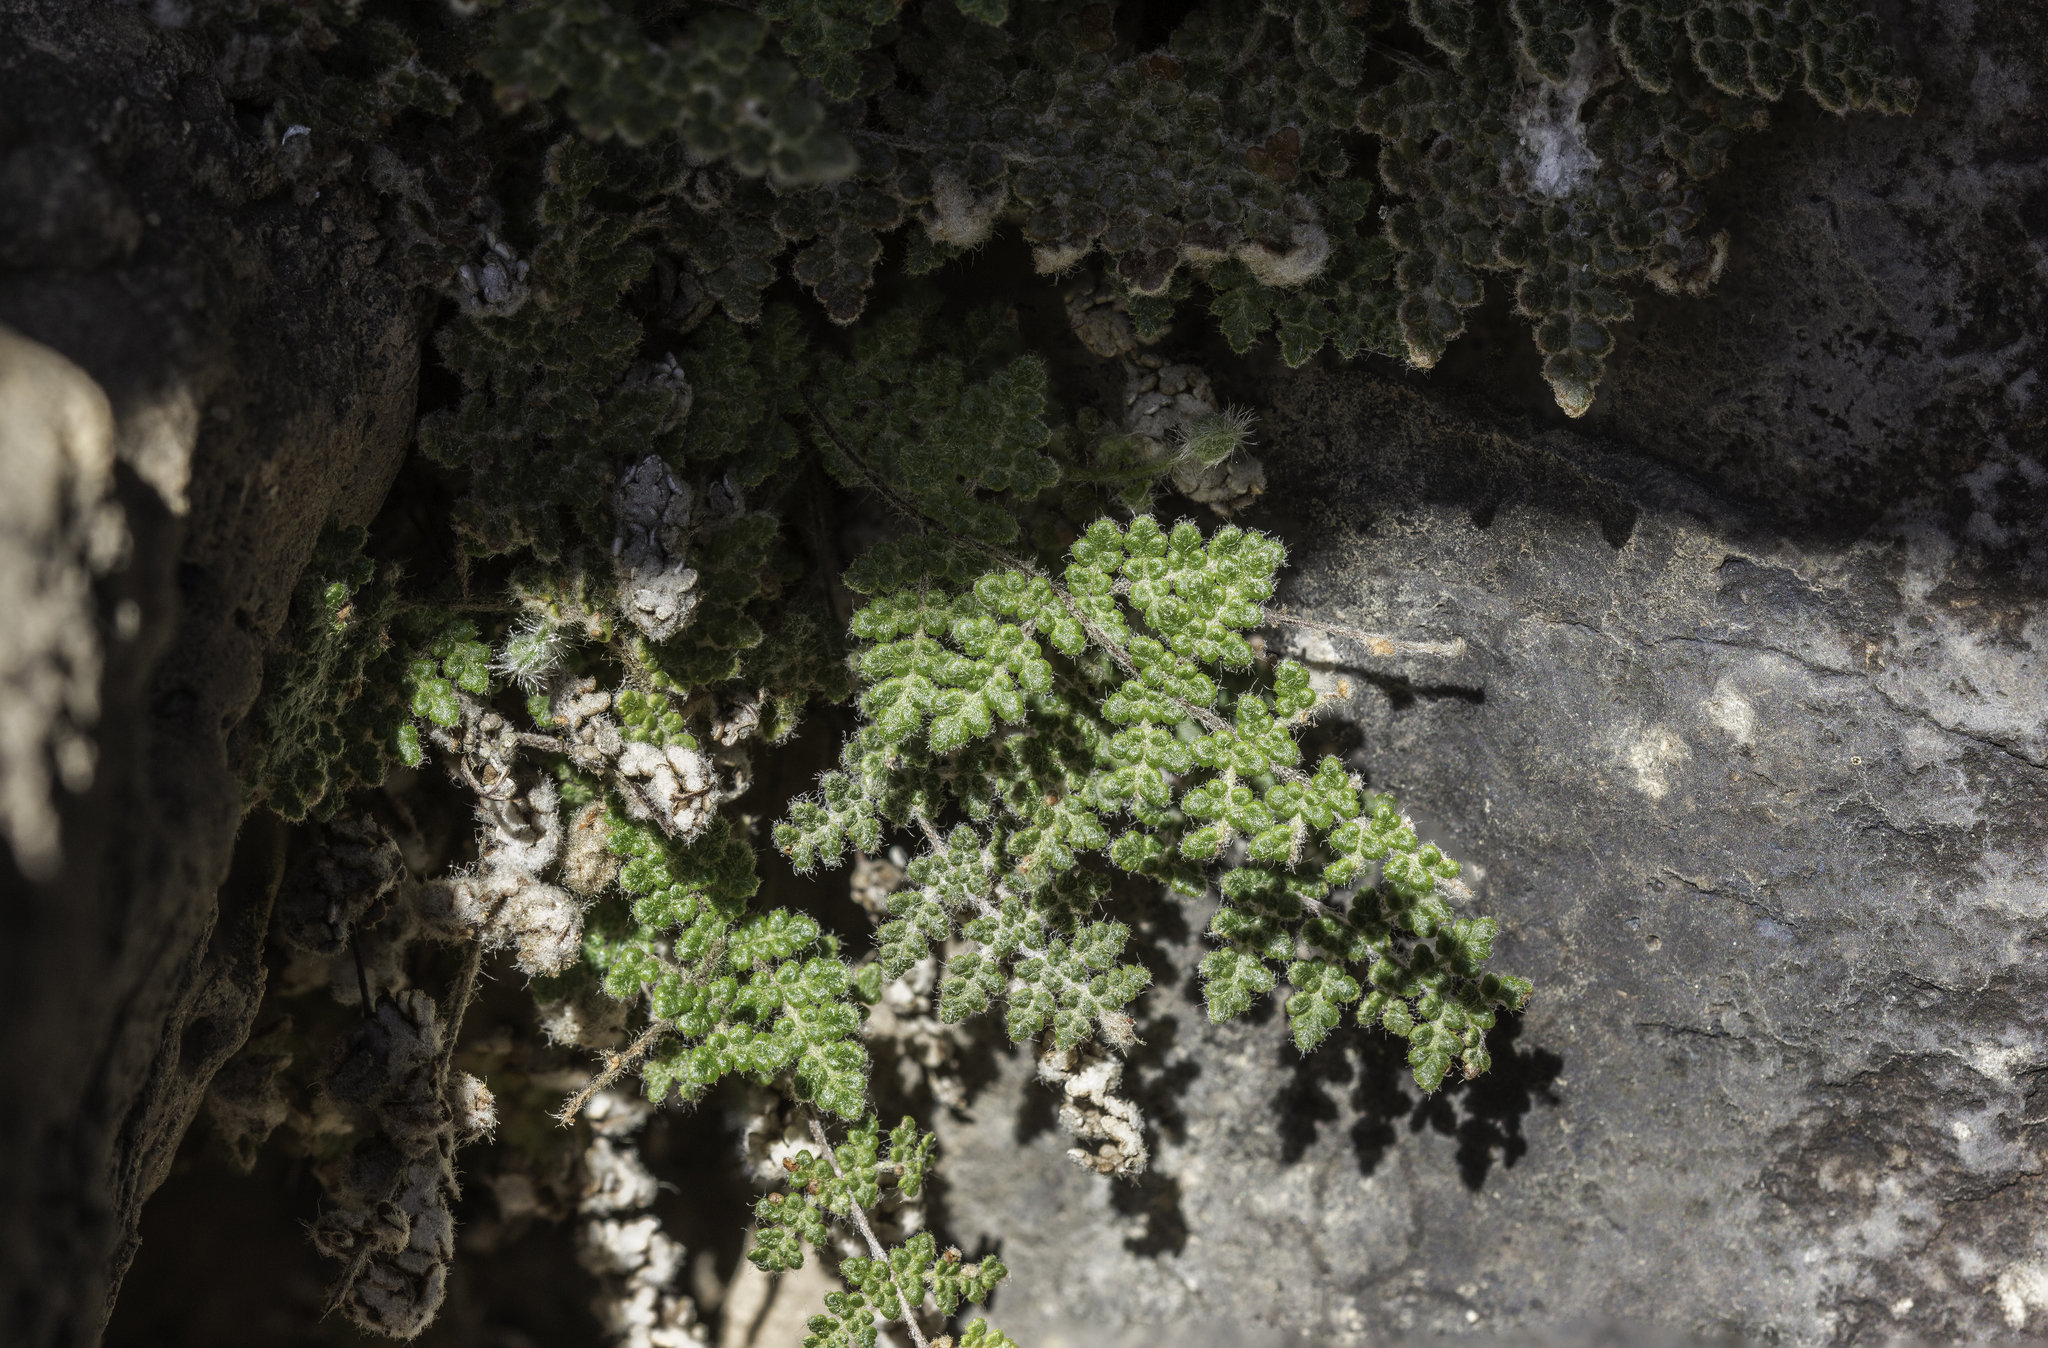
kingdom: Plantae
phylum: Tracheophyta
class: Polypodiopsida
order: Polypodiales
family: Pteridaceae
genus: Myriopteris
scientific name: Myriopteris gracilis
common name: Fee's lip fern
